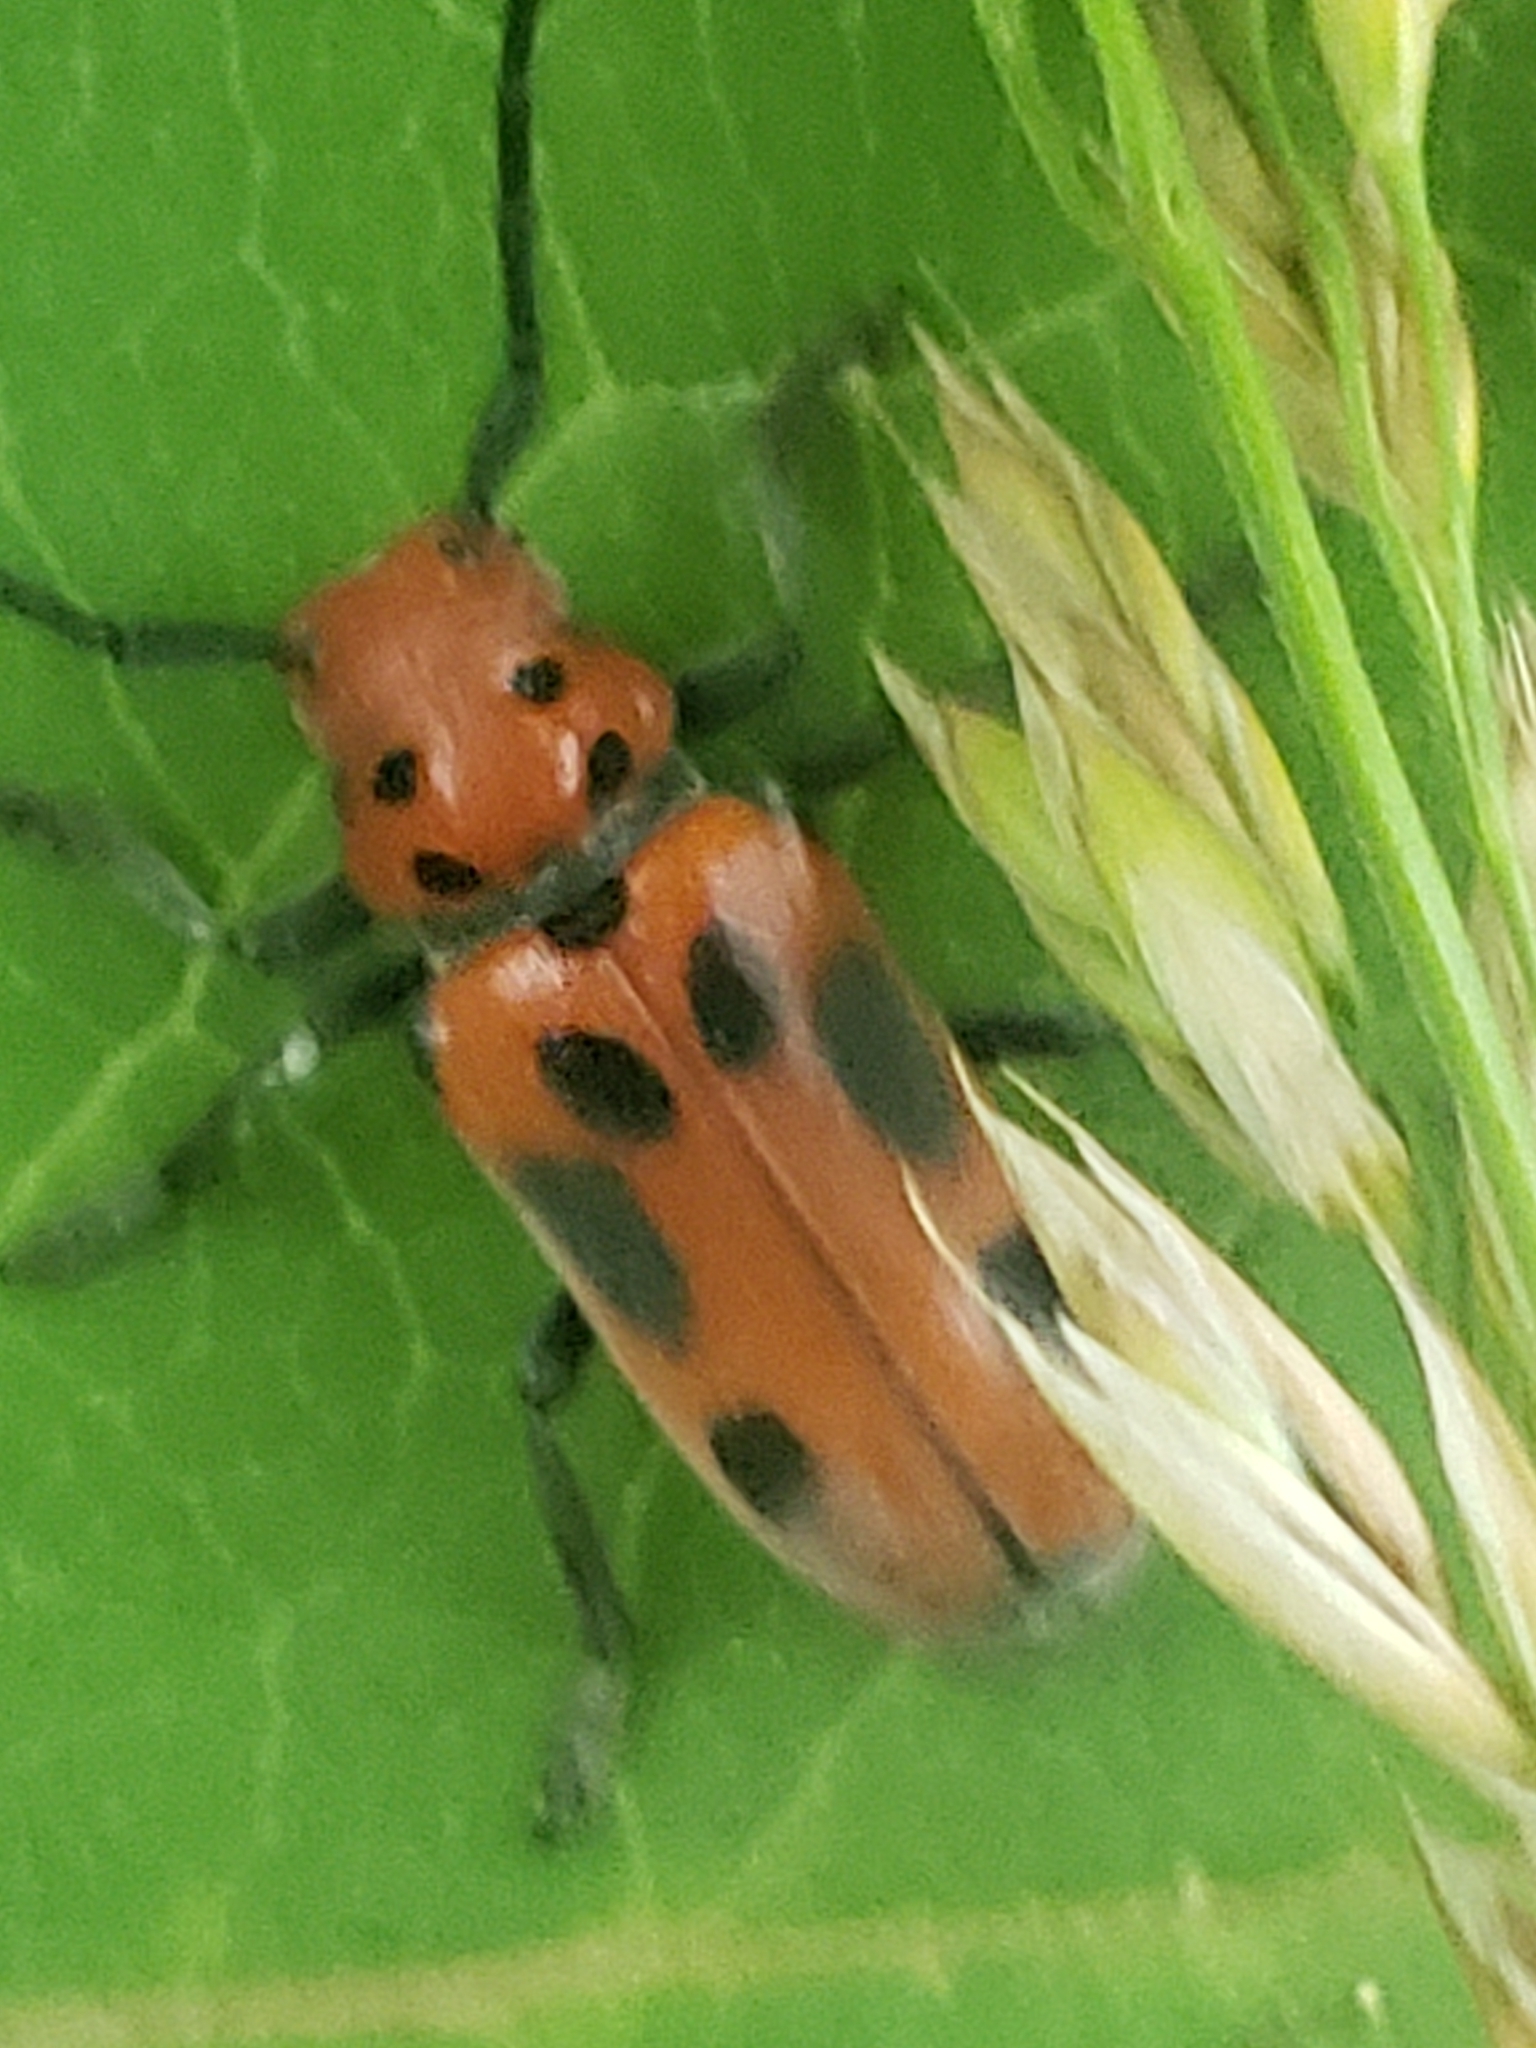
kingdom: Animalia
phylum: Arthropoda
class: Insecta
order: Coleoptera
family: Cerambycidae
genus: Tetraopes
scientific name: Tetraopes tetrophthalmus
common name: Red milkweed beetle
